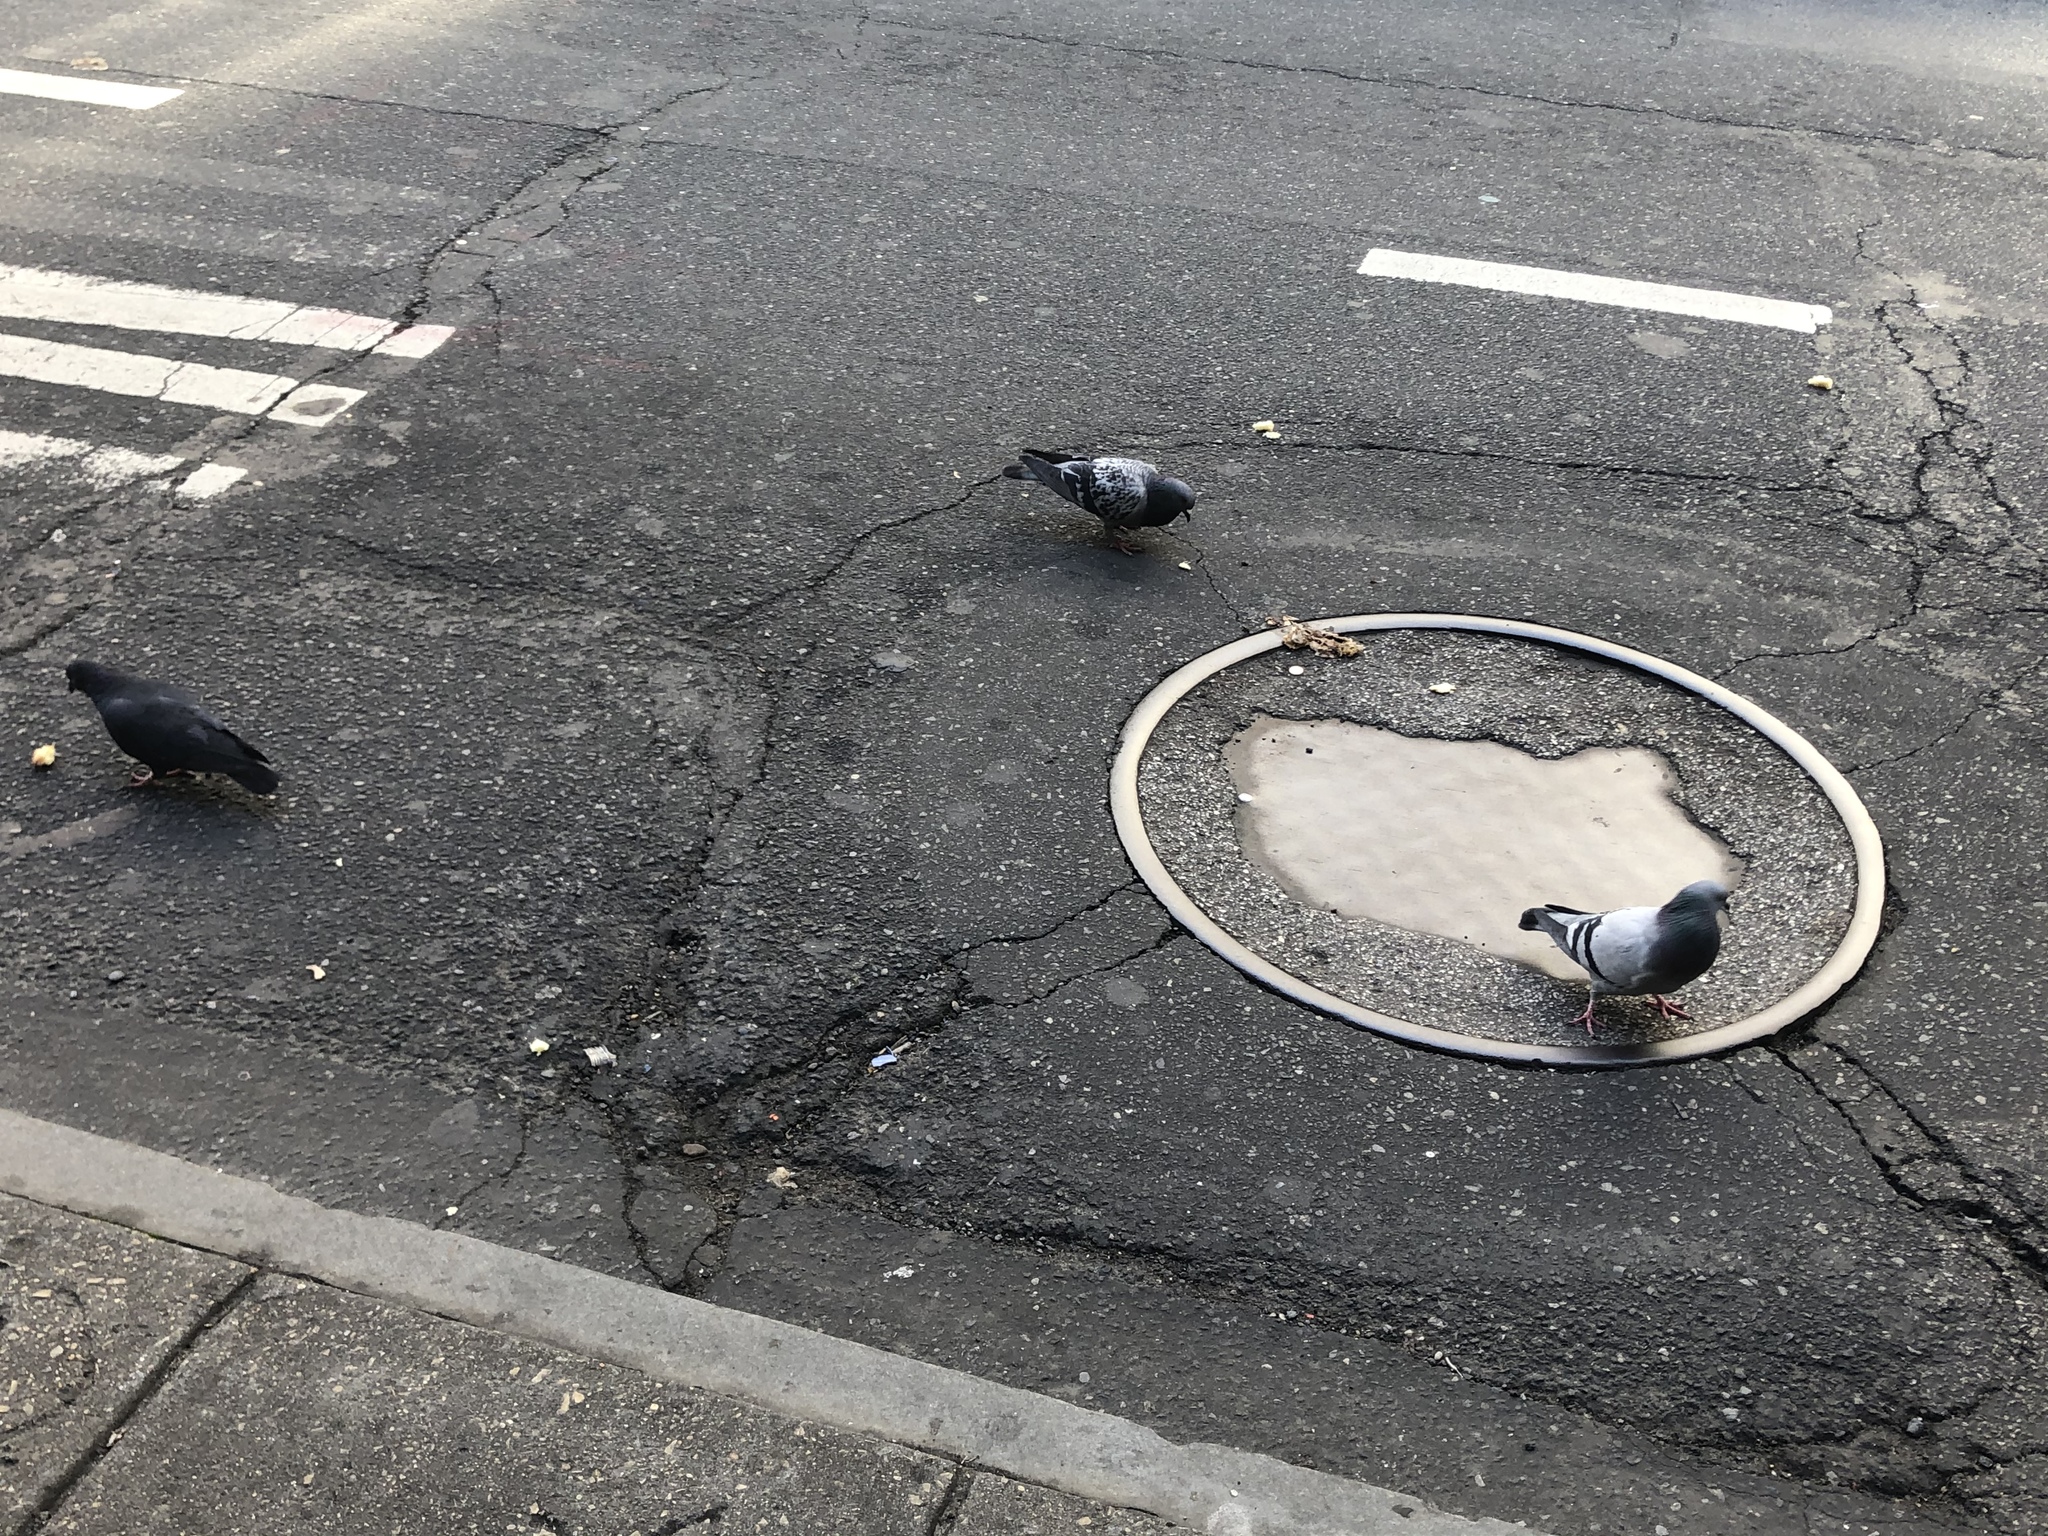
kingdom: Animalia
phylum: Chordata
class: Aves
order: Columbiformes
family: Columbidae
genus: Columba
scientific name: Columba livia
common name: Rock pigeon
